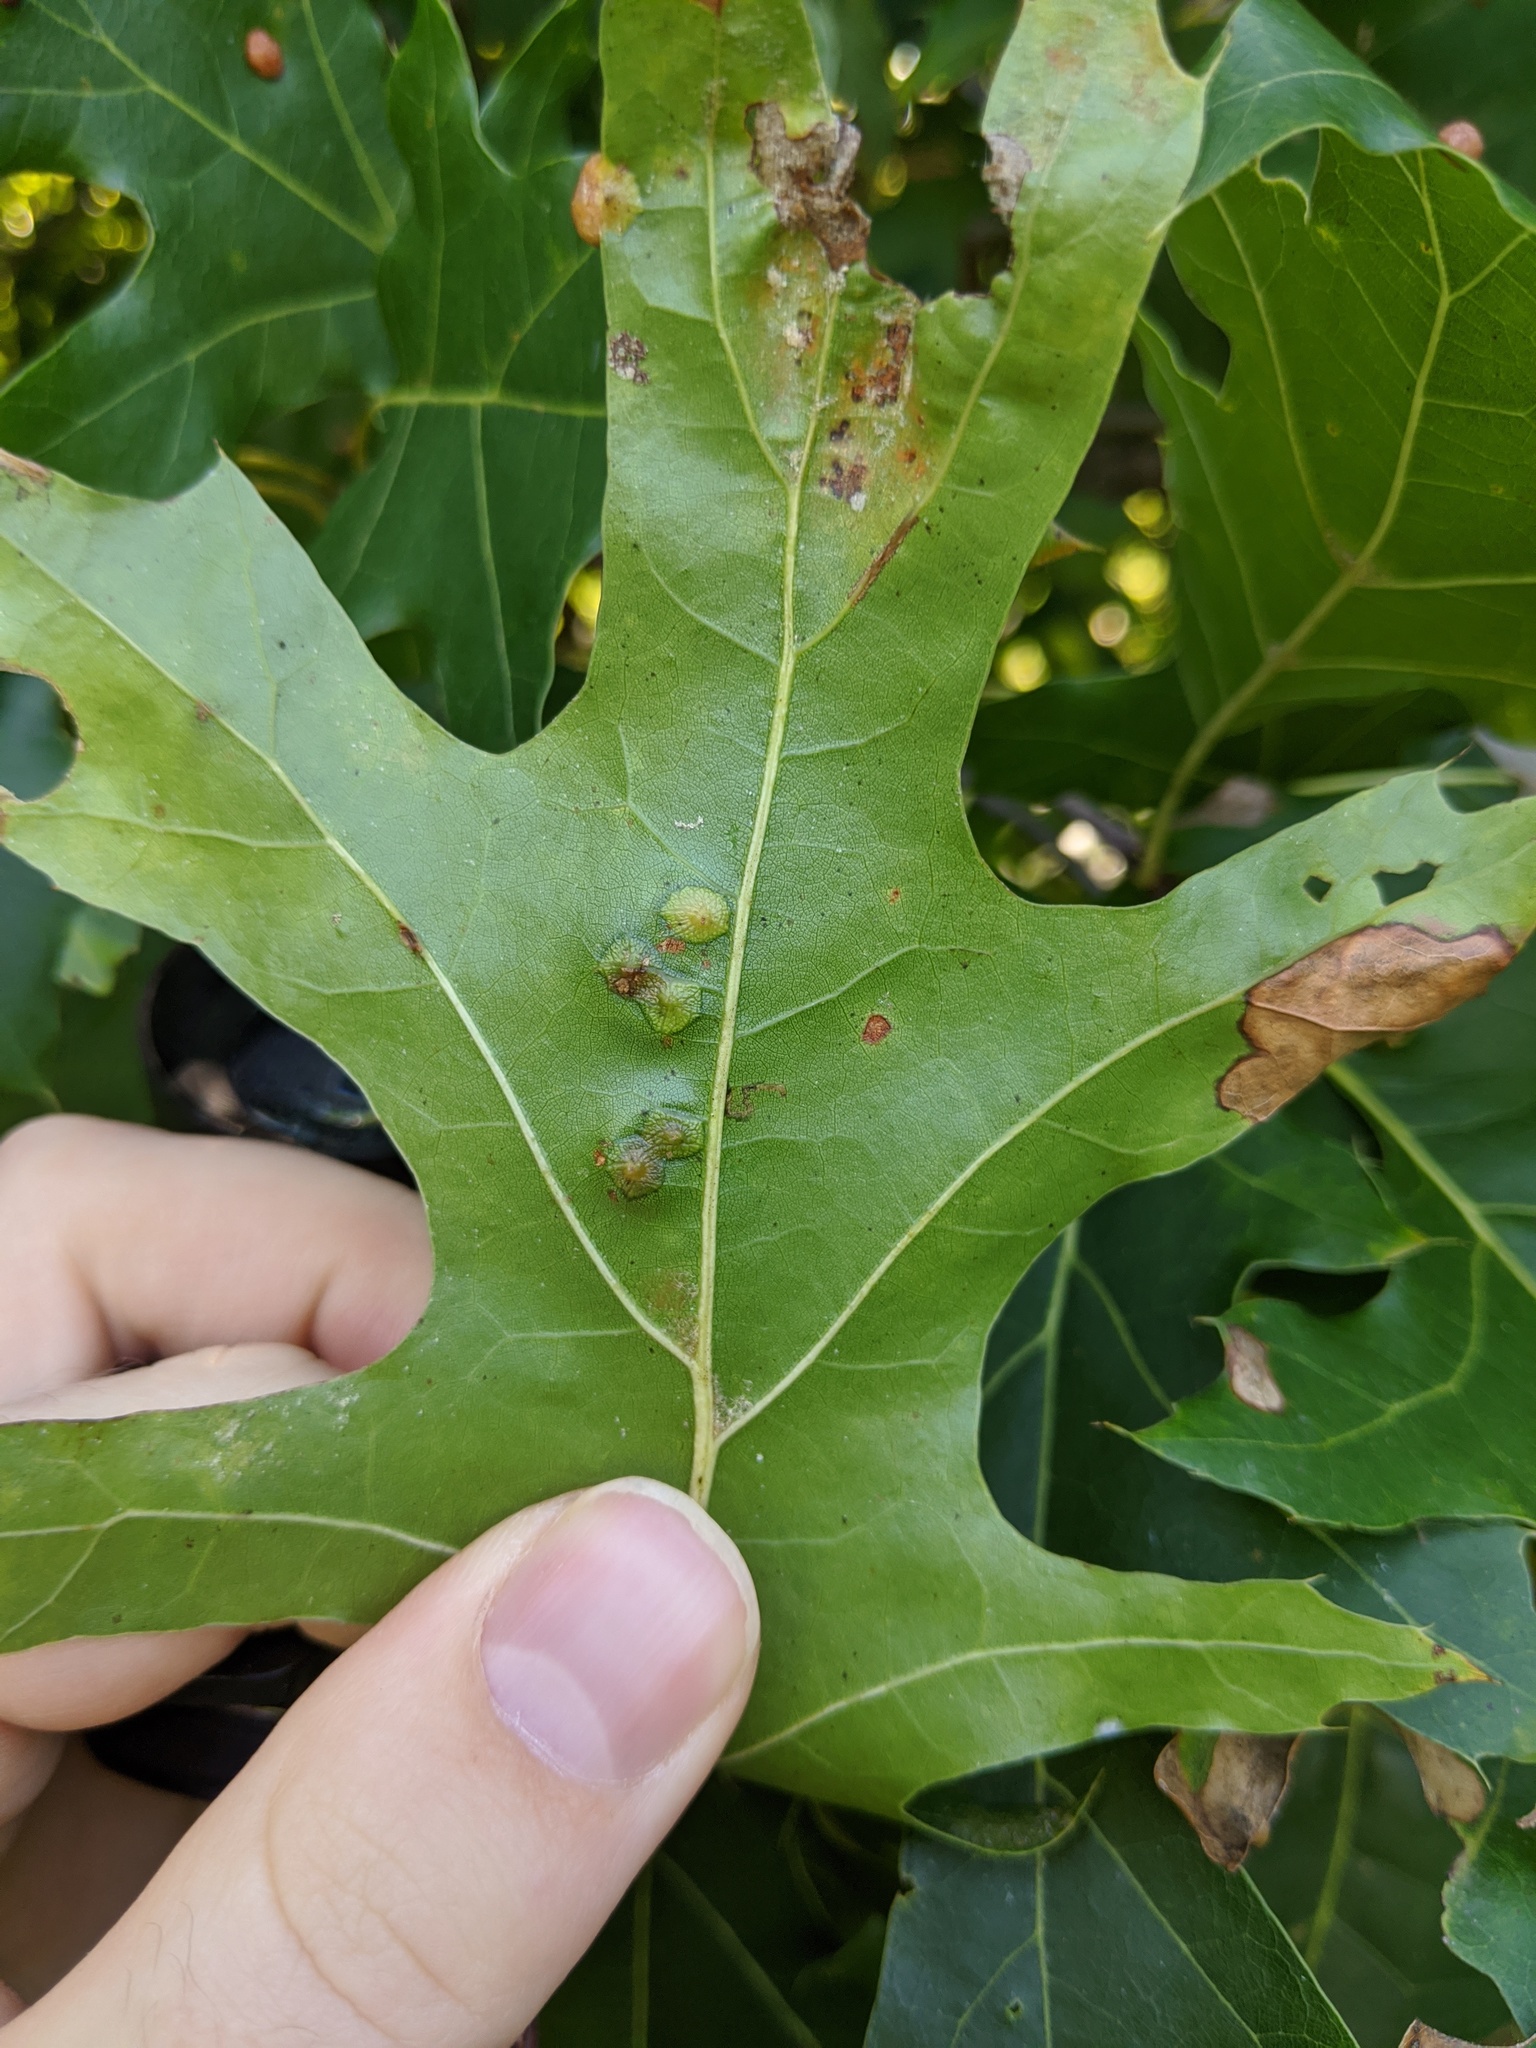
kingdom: Animalia
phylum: Arthropoda
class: Insecta
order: Diptera
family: Cecidomyiidae
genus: Polystepha
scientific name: Polystepha pilulae
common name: Oak leaf gall midge
